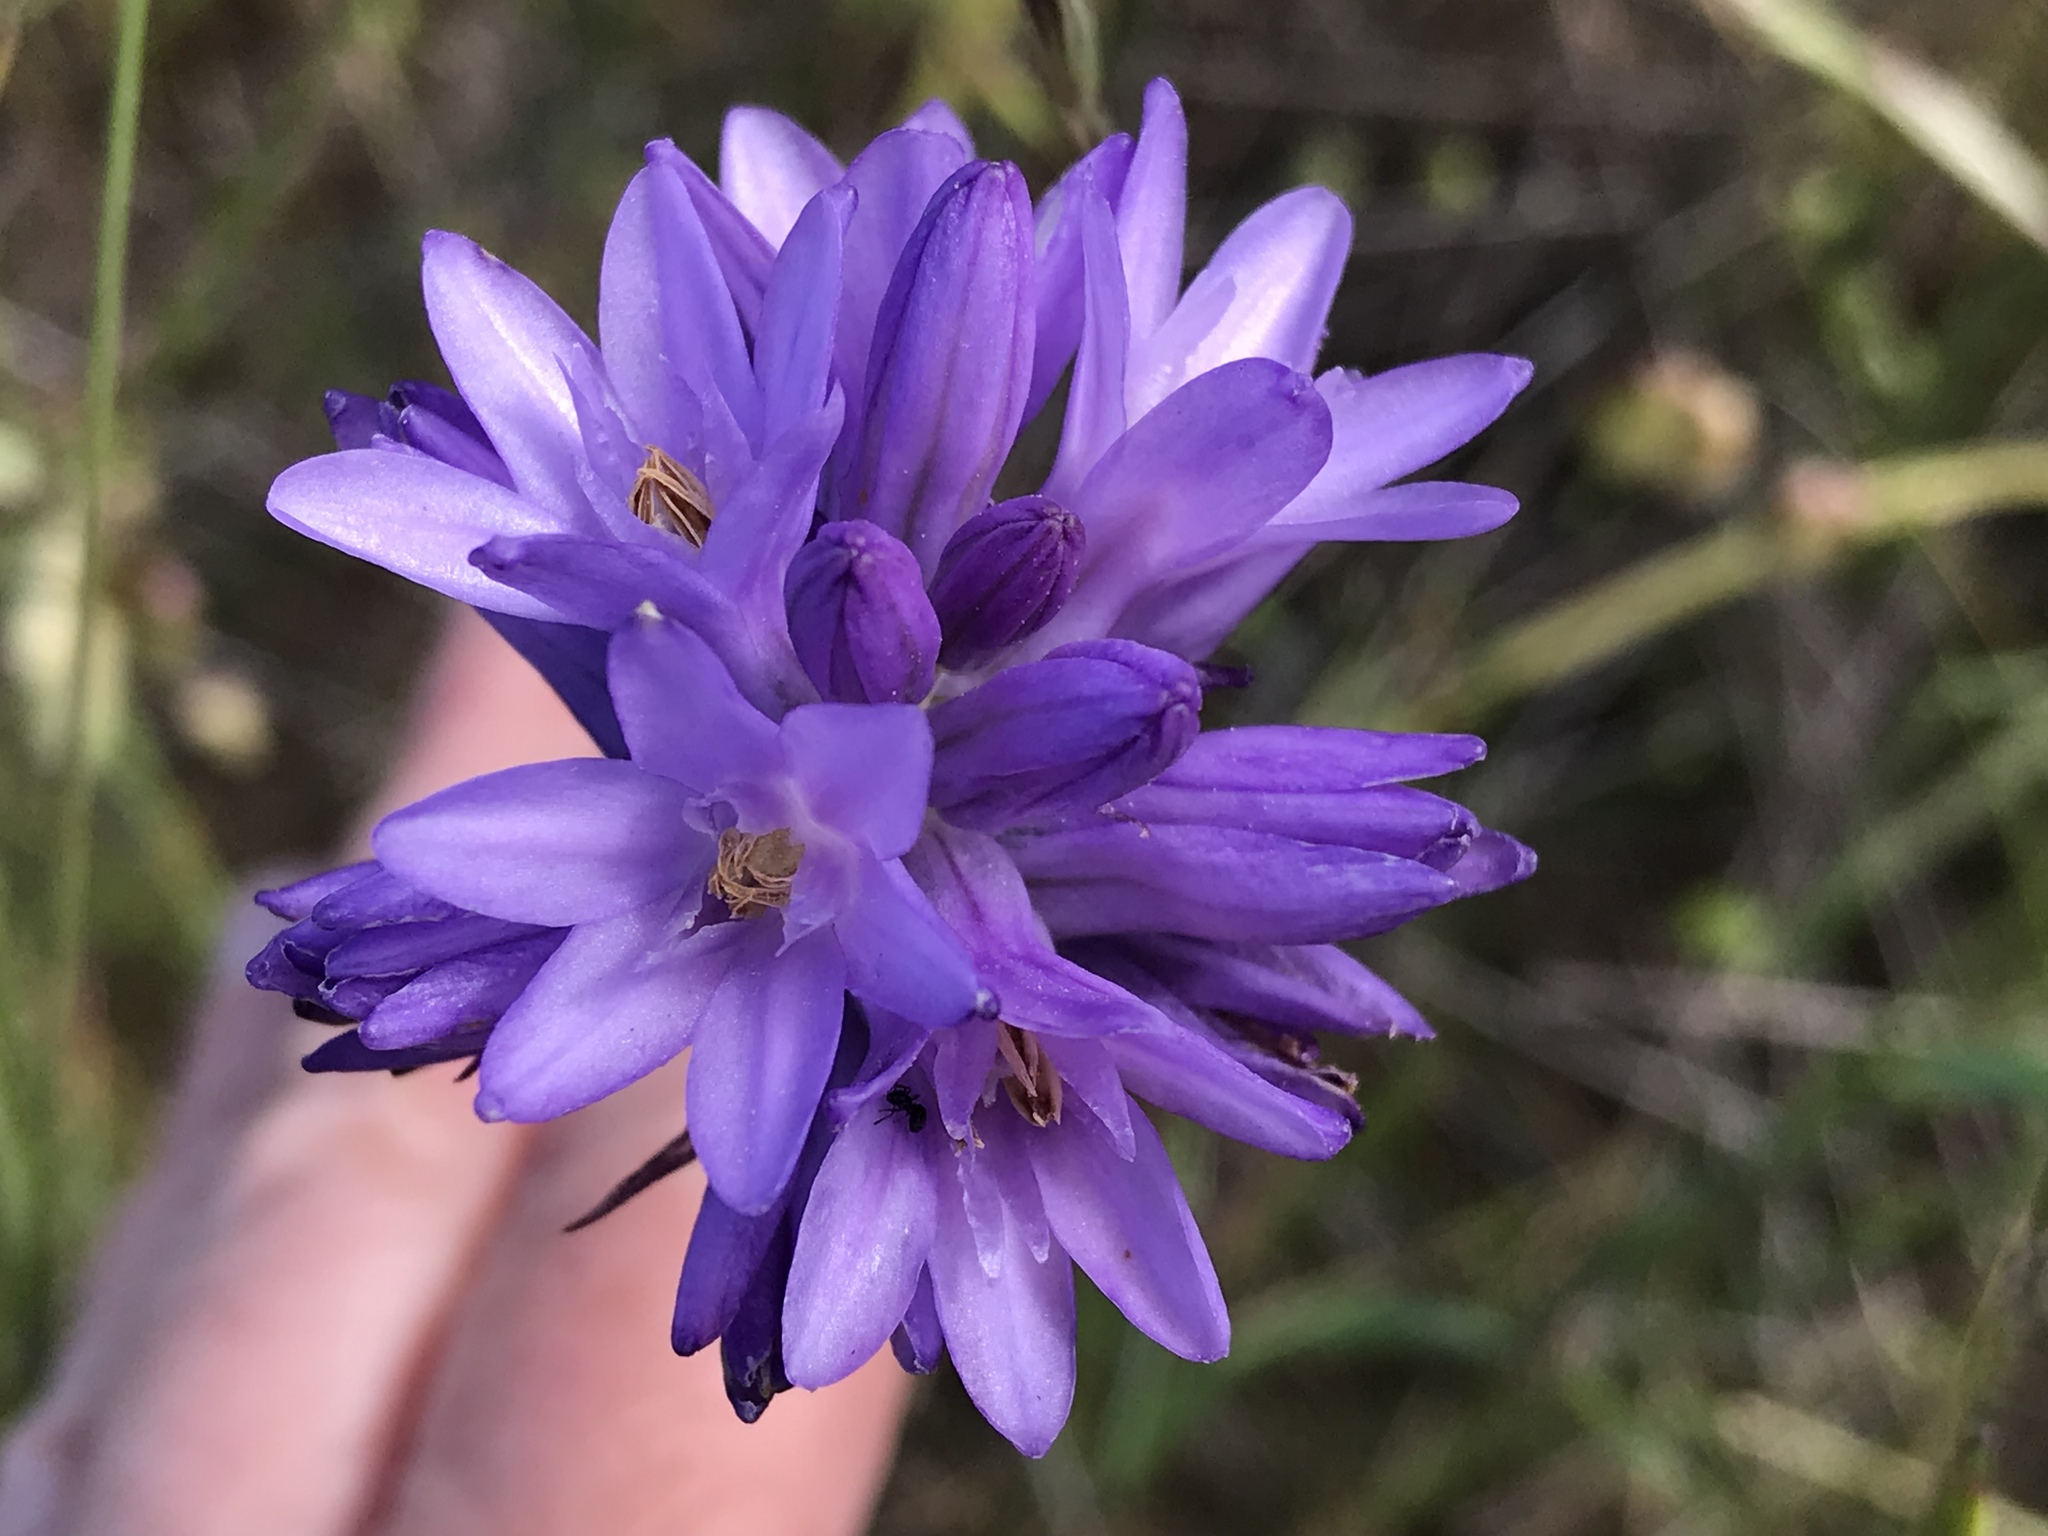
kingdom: Plantae
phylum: Tracheophyta
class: Liliopsida
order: Asparagales
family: Asparagaceae
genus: Dichelostemma
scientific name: Dichelostemma congestum
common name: Fork-tooth ookow
